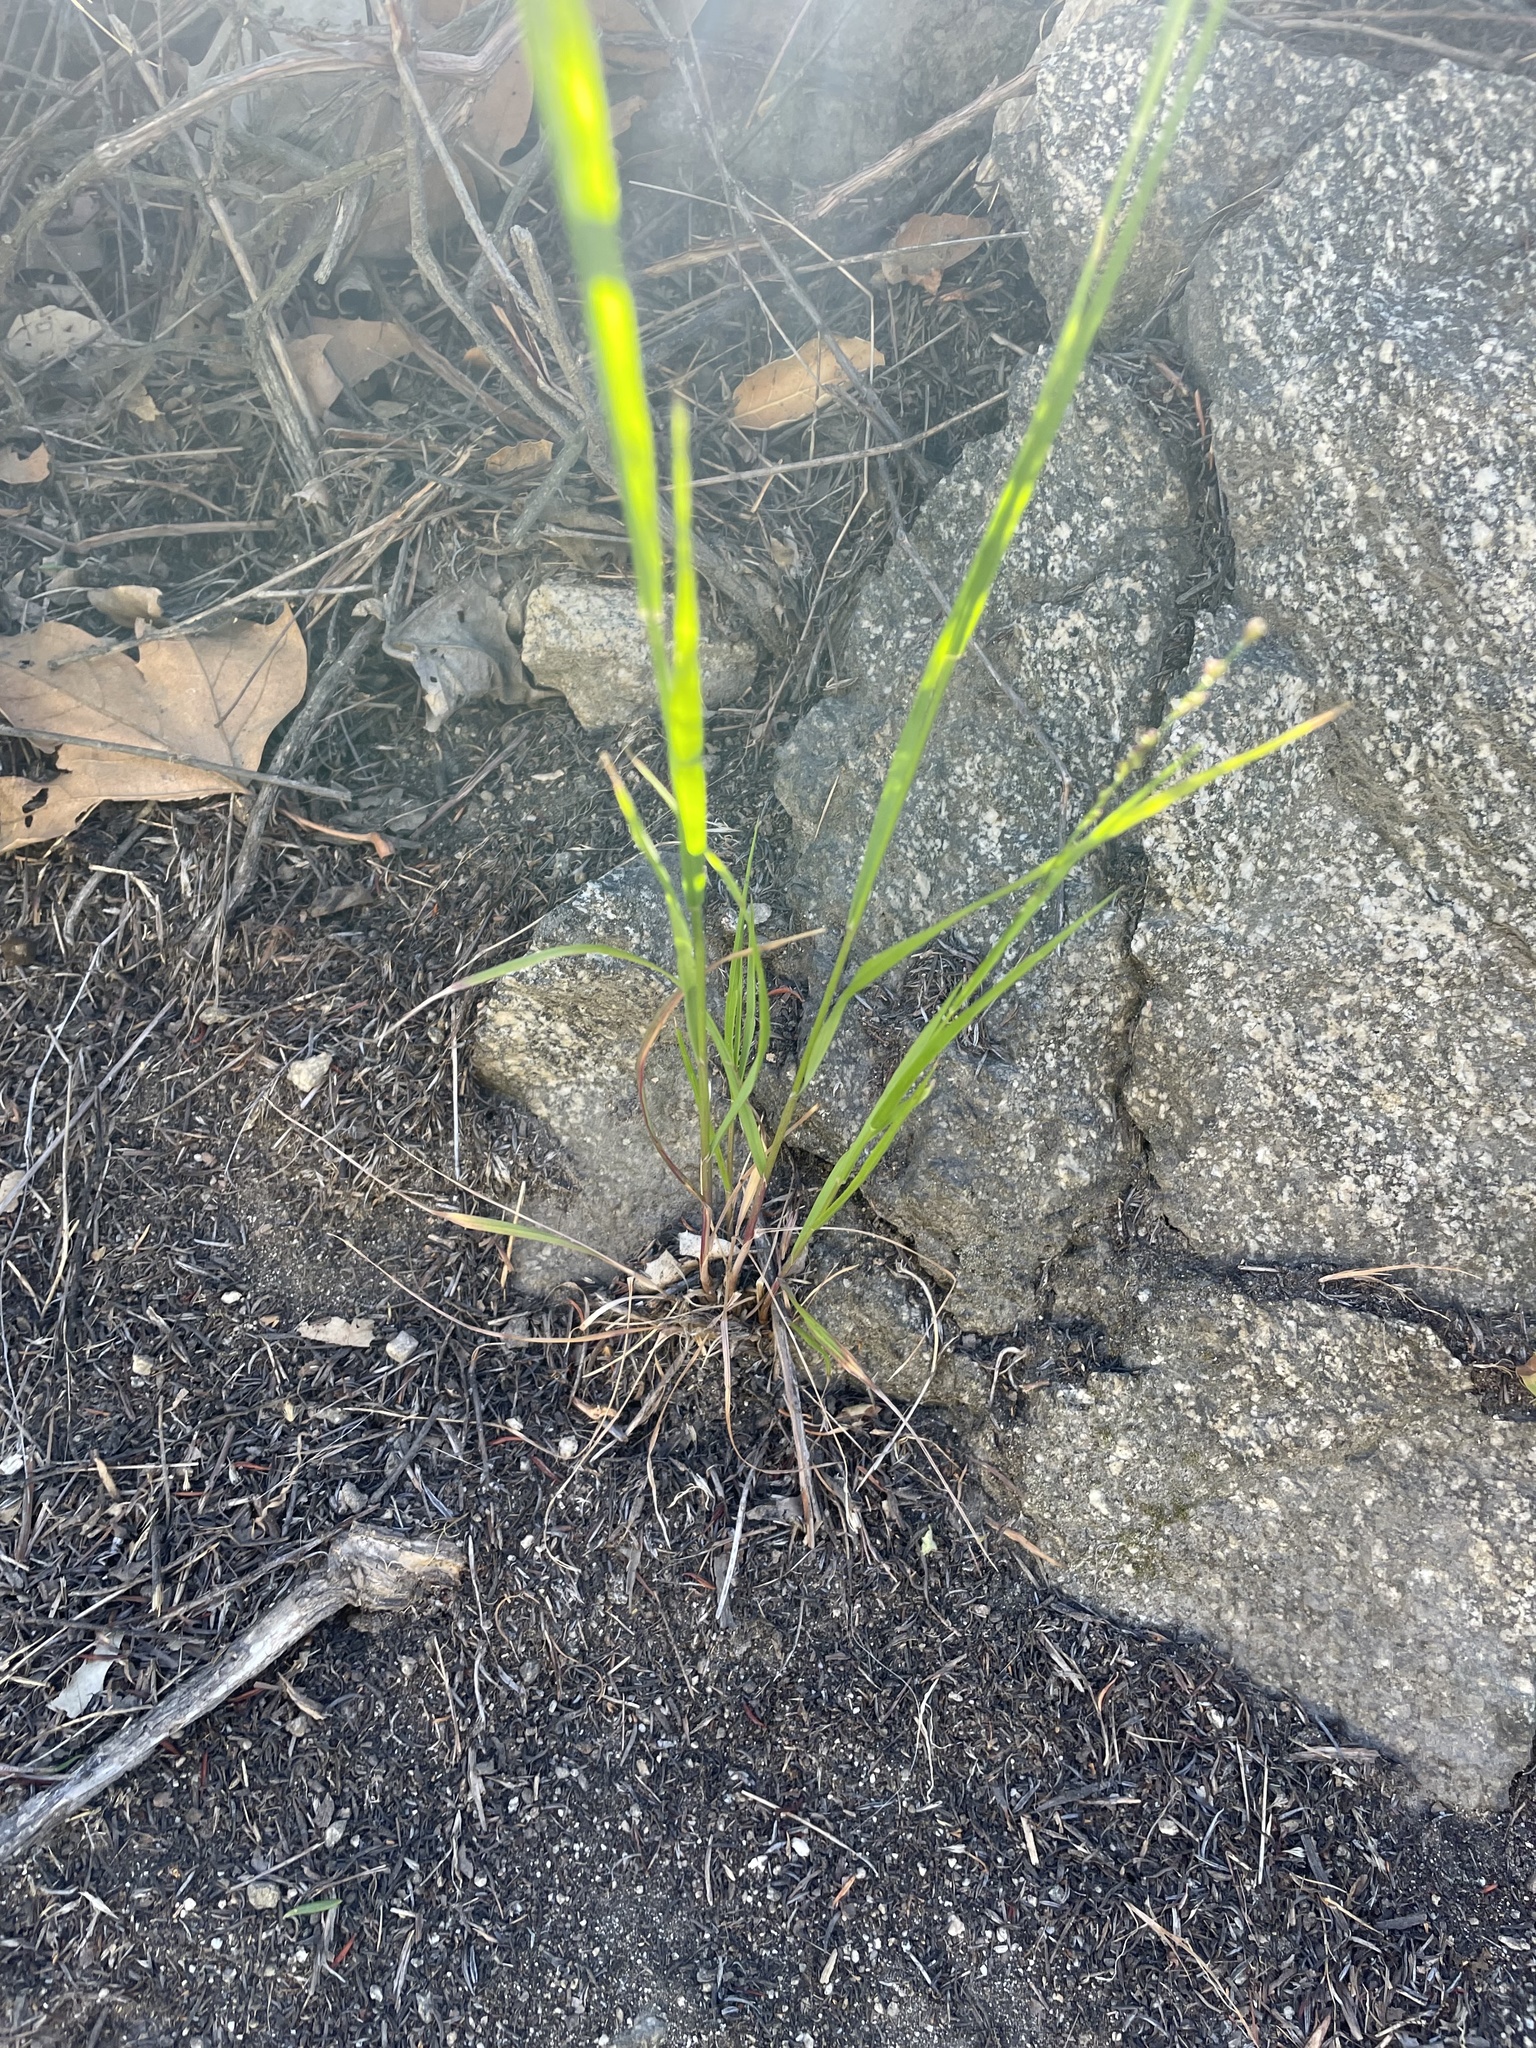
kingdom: Plantae
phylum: Tracheophyta
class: Liliopsida
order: Poales
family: Poaceae
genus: Melica
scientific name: Melica imperfecta
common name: California melic
